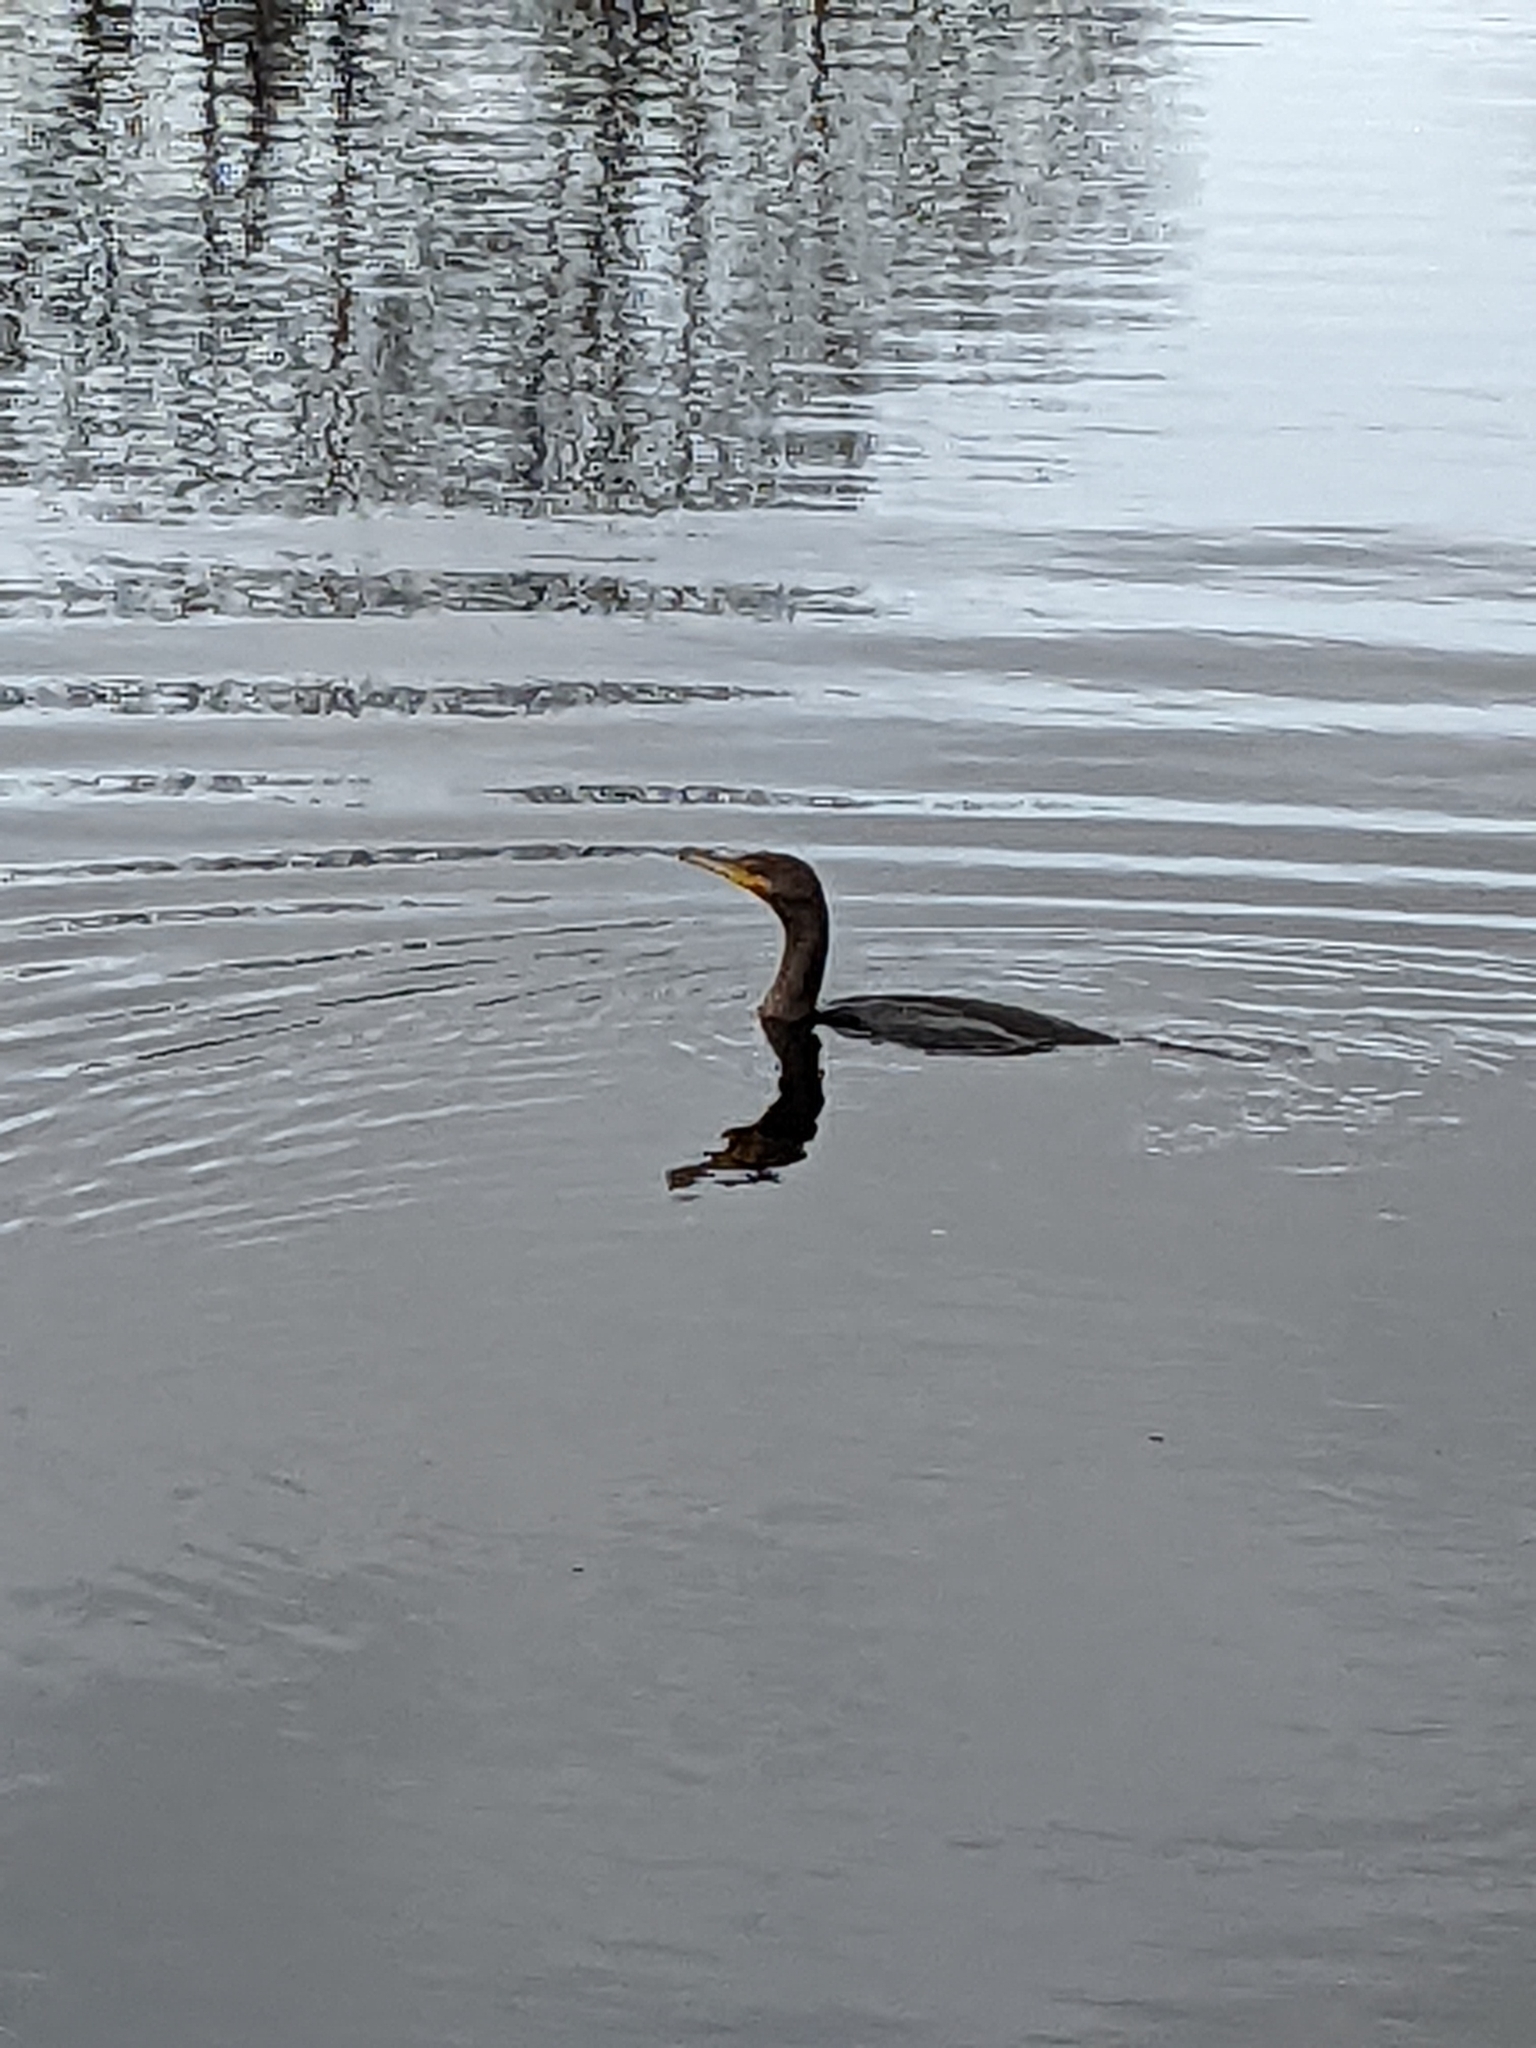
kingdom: Animalia
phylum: Chordata
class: Aves
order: Suliformes
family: Phalacrocoracidae
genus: Phalacrocorax
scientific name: Phalacrocorax auritus
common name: Double-crested cormorant
